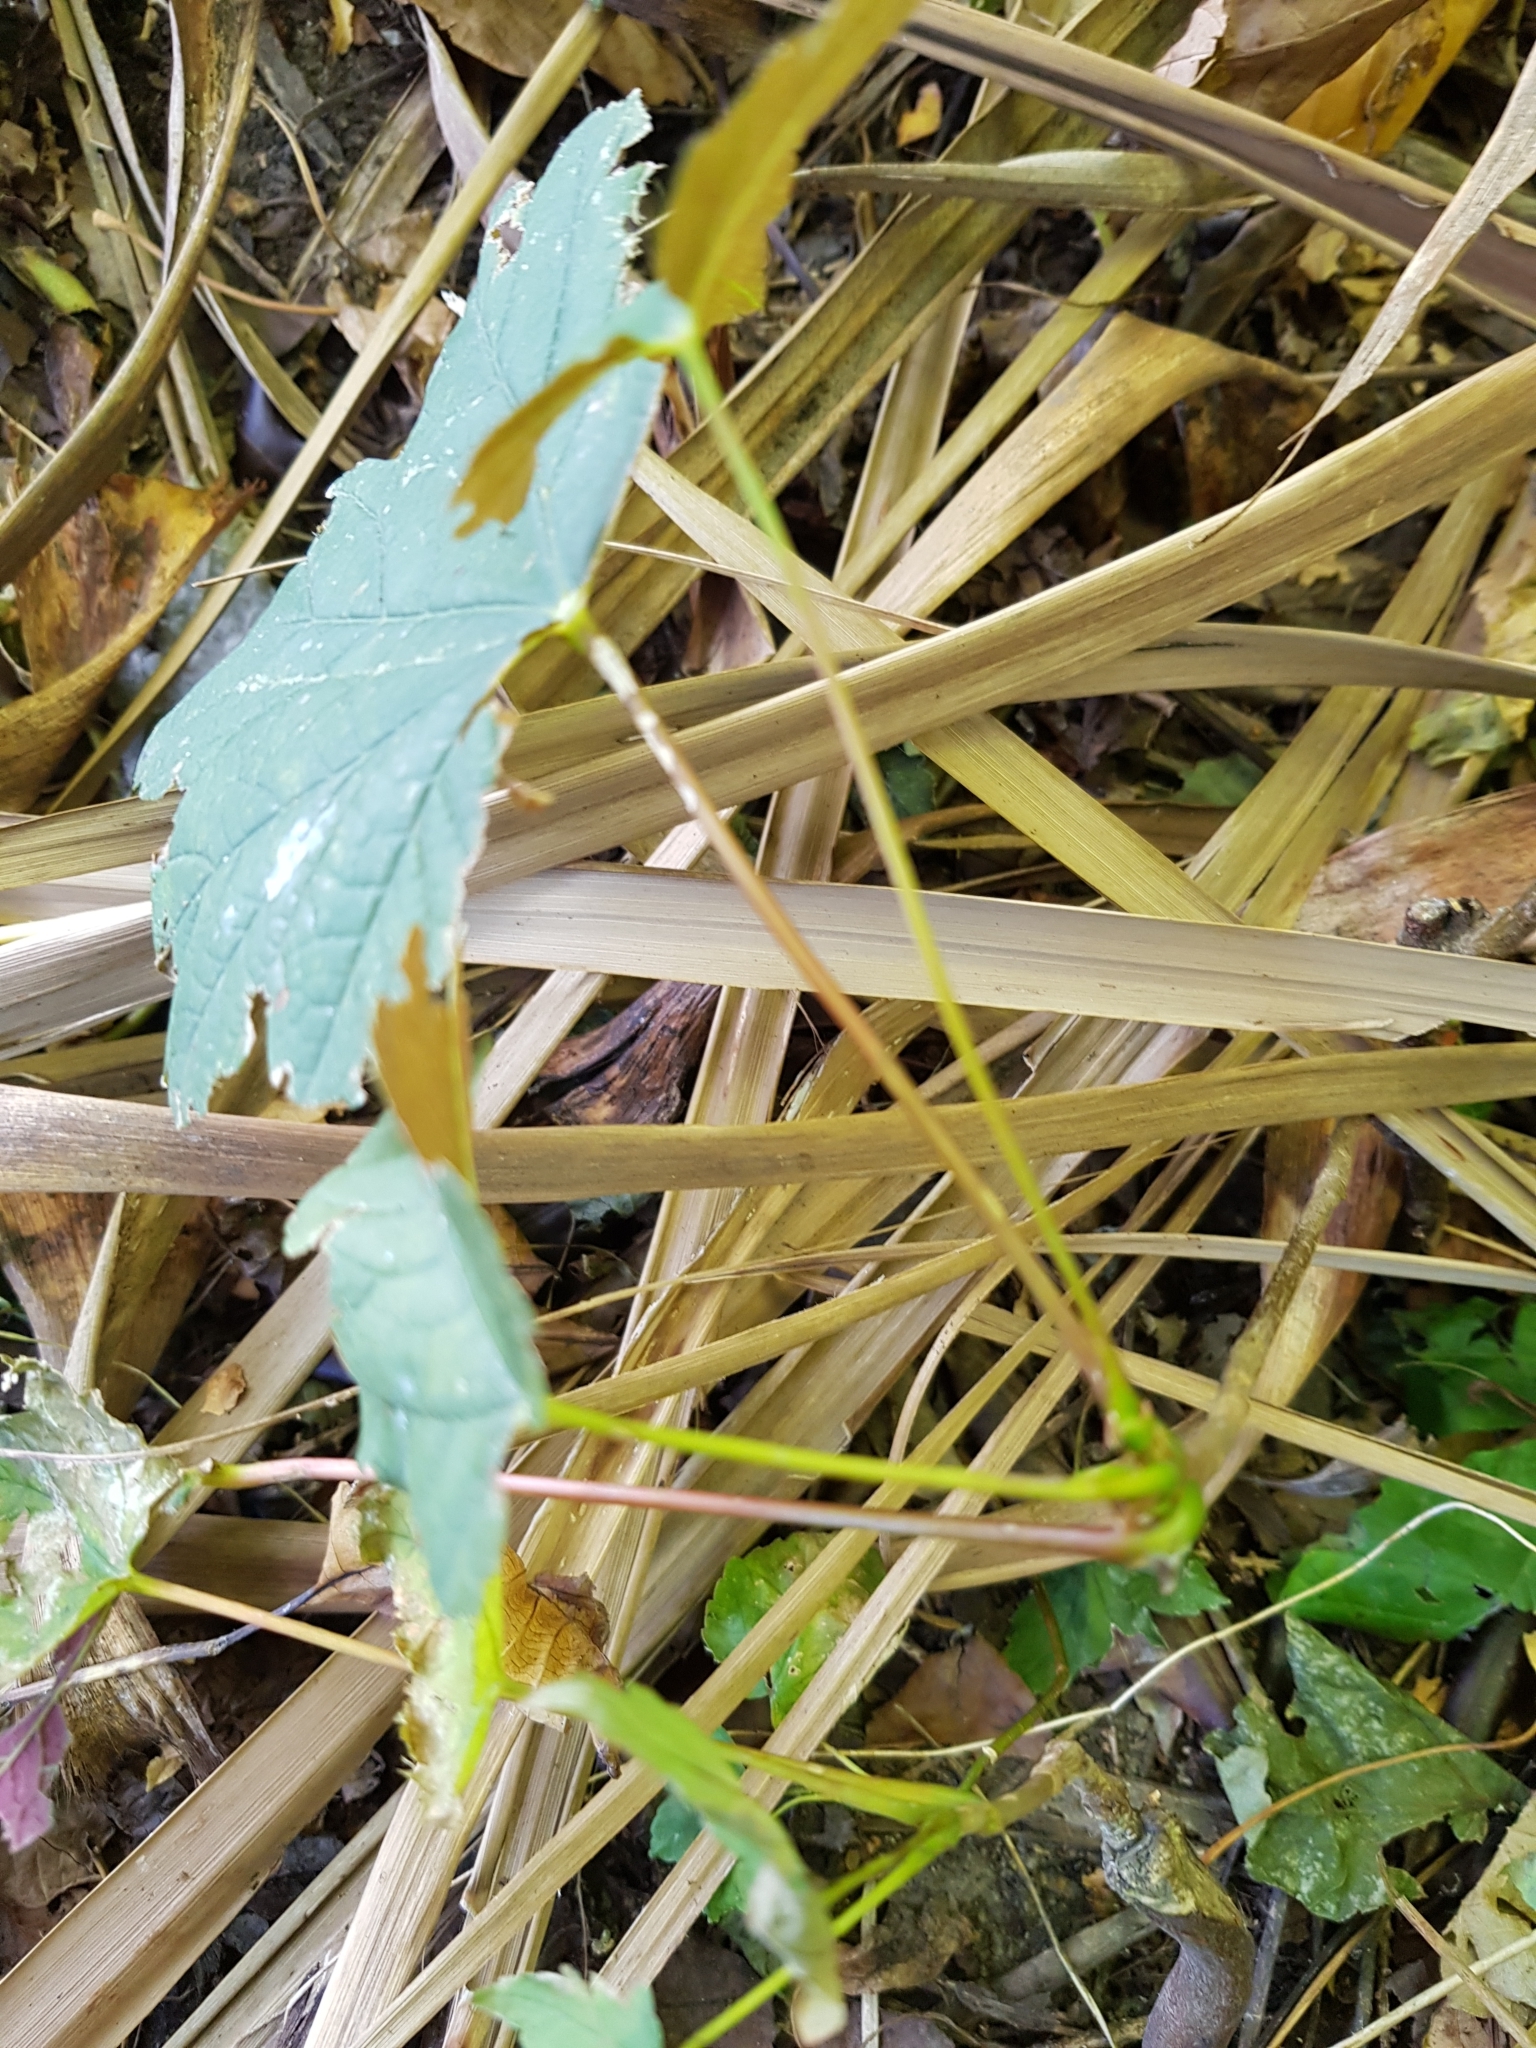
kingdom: Plantae
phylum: Tracheophyta
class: Magnoliopsida
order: Sapindales
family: Sapindaceae
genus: Acer
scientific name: Acer pseudoplatanus
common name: Sycamore
